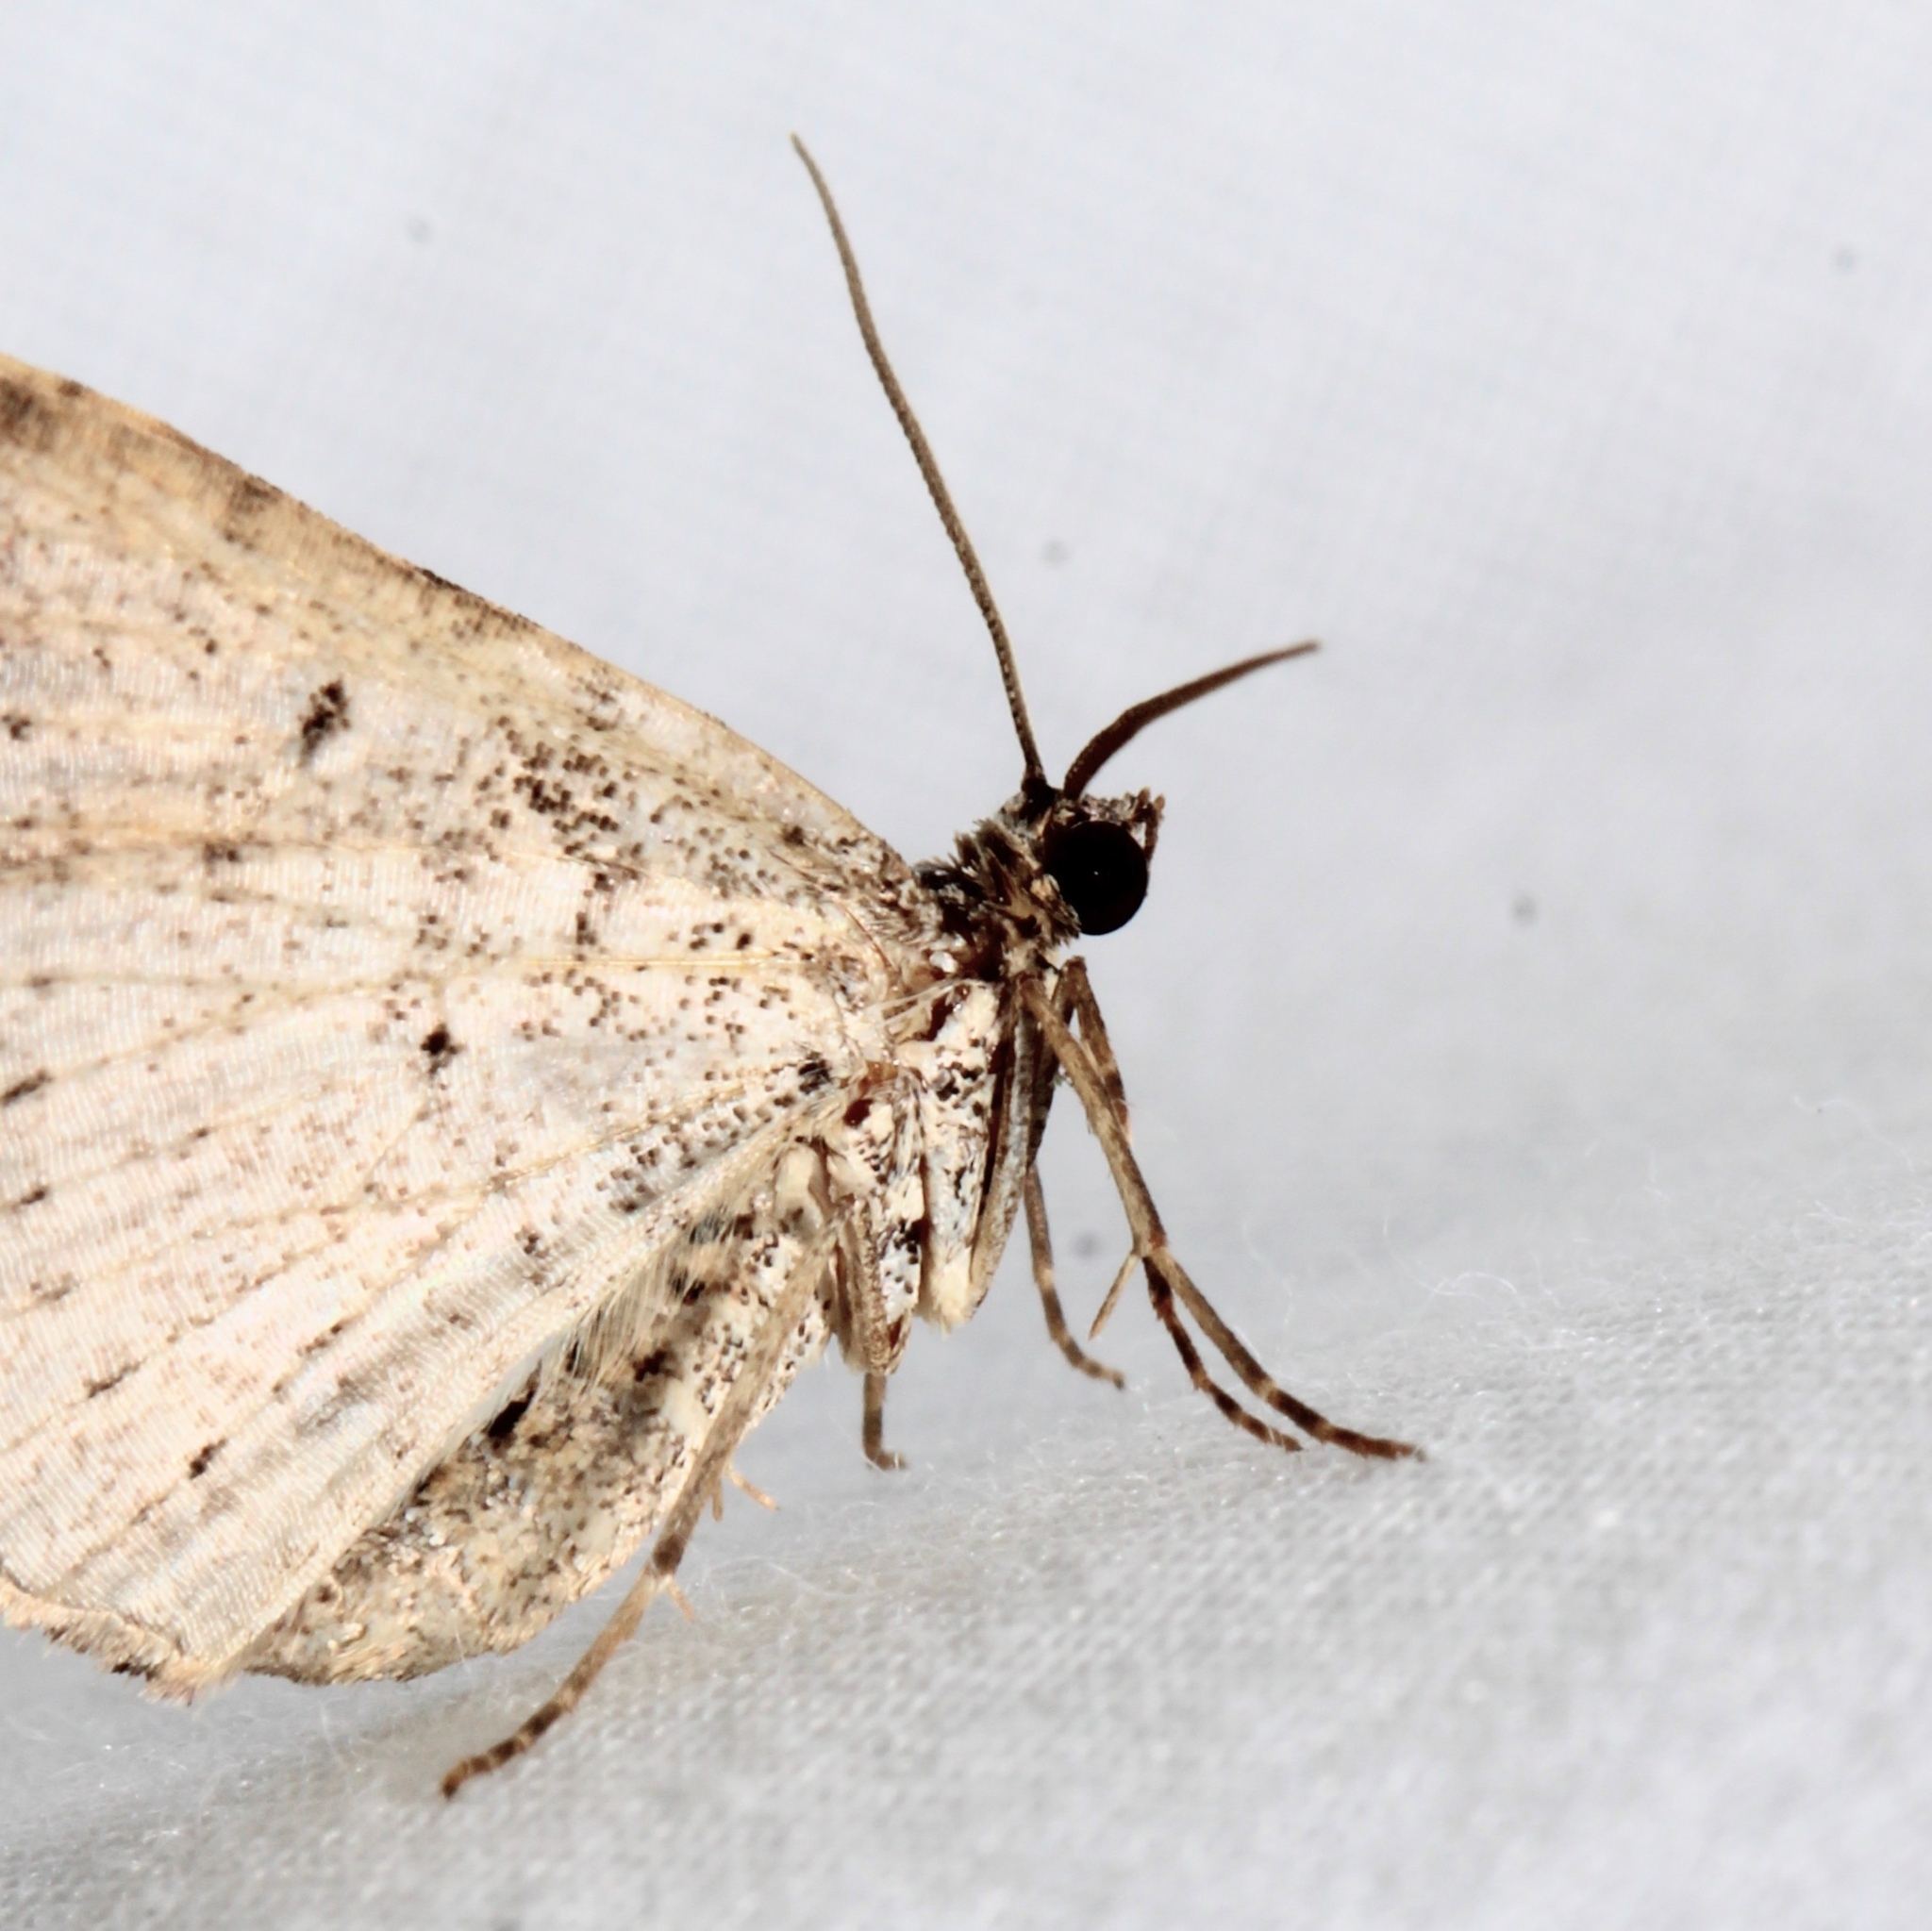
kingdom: Animalia
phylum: Arthropoda
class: Insecta
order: Lepidoptera
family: Geometridae
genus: Costaconvexa
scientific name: Costaconvexa centrostrigaria
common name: Bent-line carpet
